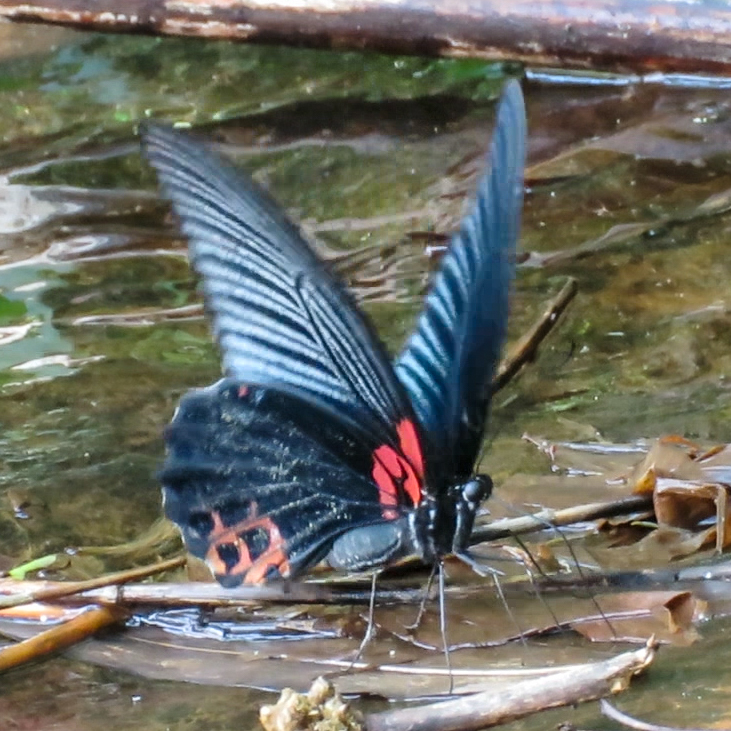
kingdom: Animalia
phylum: Arthropoda
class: Insecta
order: Lepidoptera
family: Papilionidae
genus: Papilio
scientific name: Papilio memnon
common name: Great mormon
